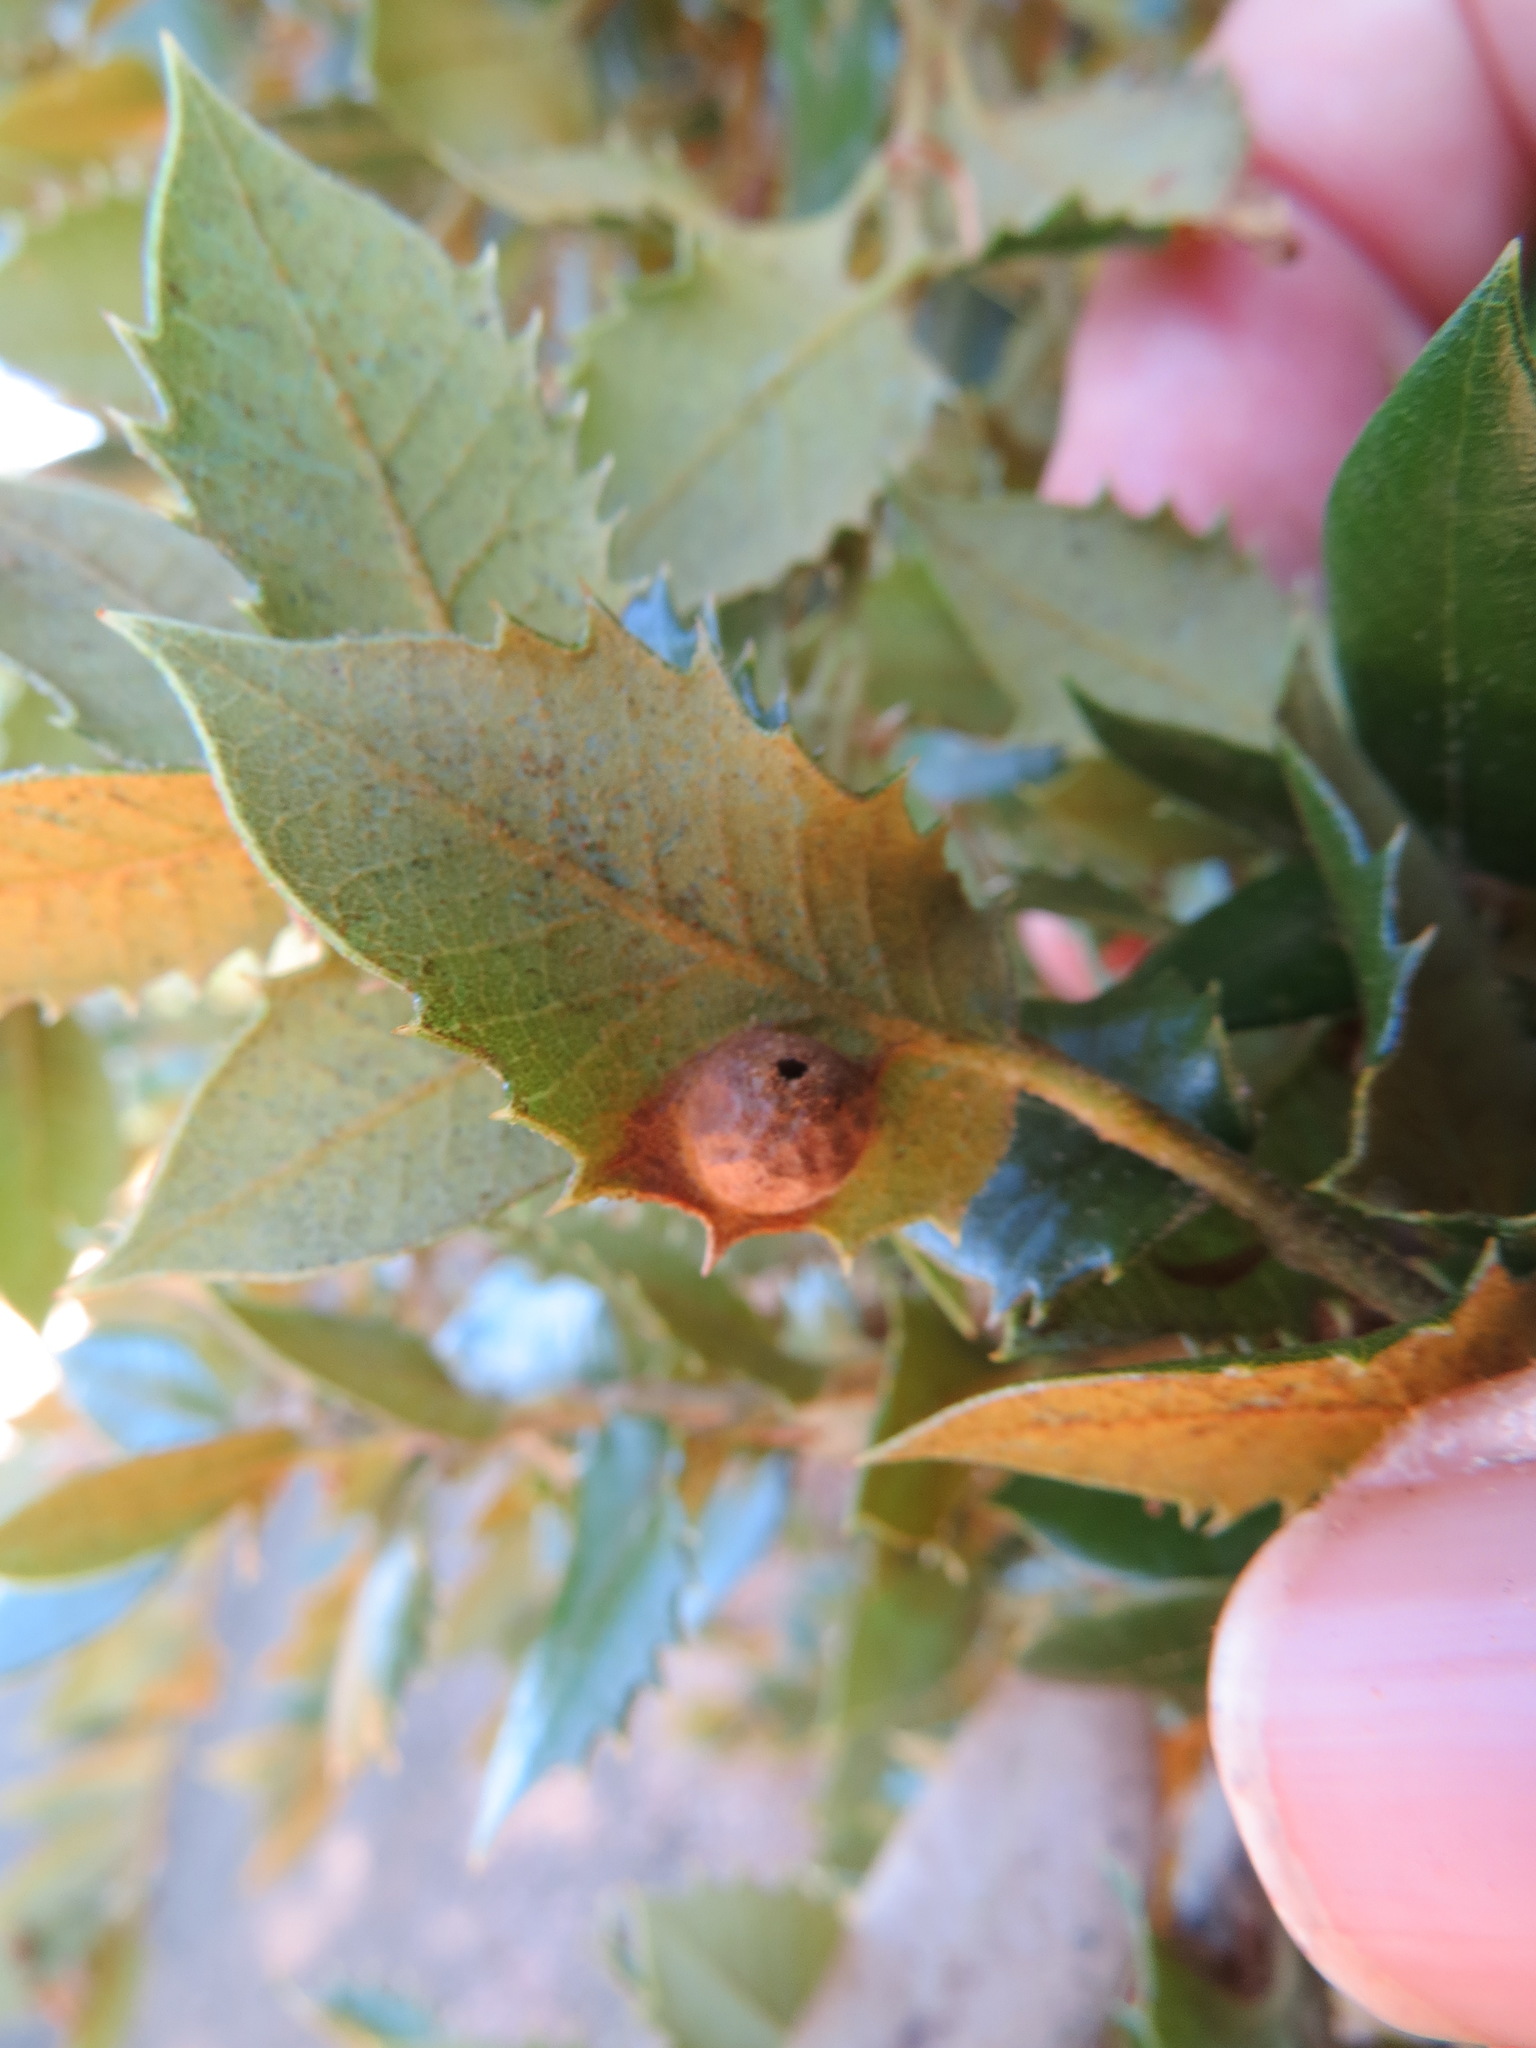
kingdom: Animalia
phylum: Arthropoda
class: Insecta
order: Hymenoptera
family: Cynipidae
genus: Heteroecus
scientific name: Heteroecus
